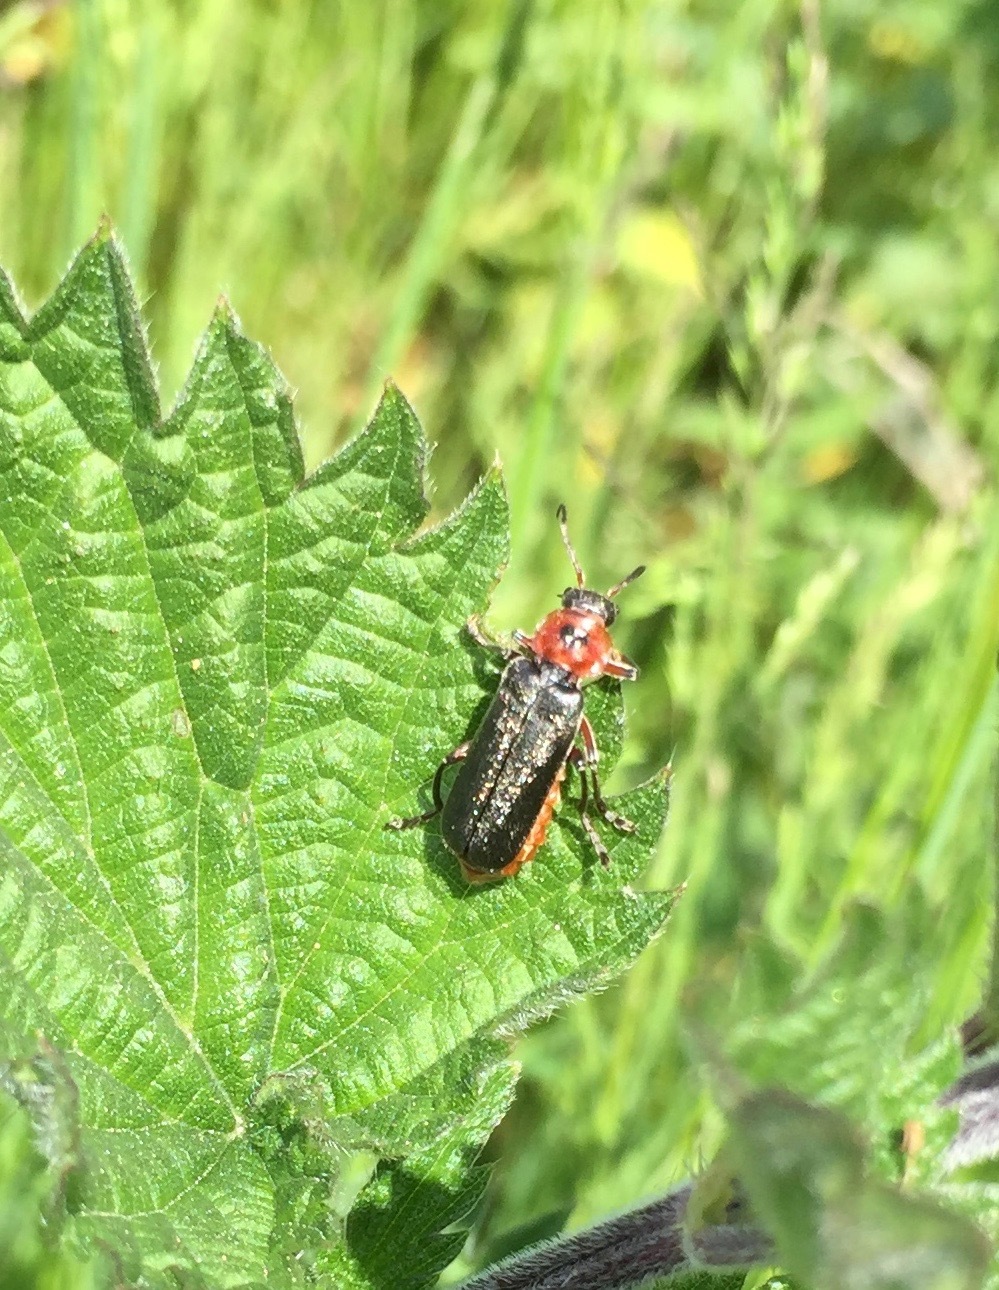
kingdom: Animalia
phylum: Arthropoda
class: Insecta
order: Coleoptera
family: Cantharidae
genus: Cantharis
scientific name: Cantharis rustica
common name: Soldier beetle
